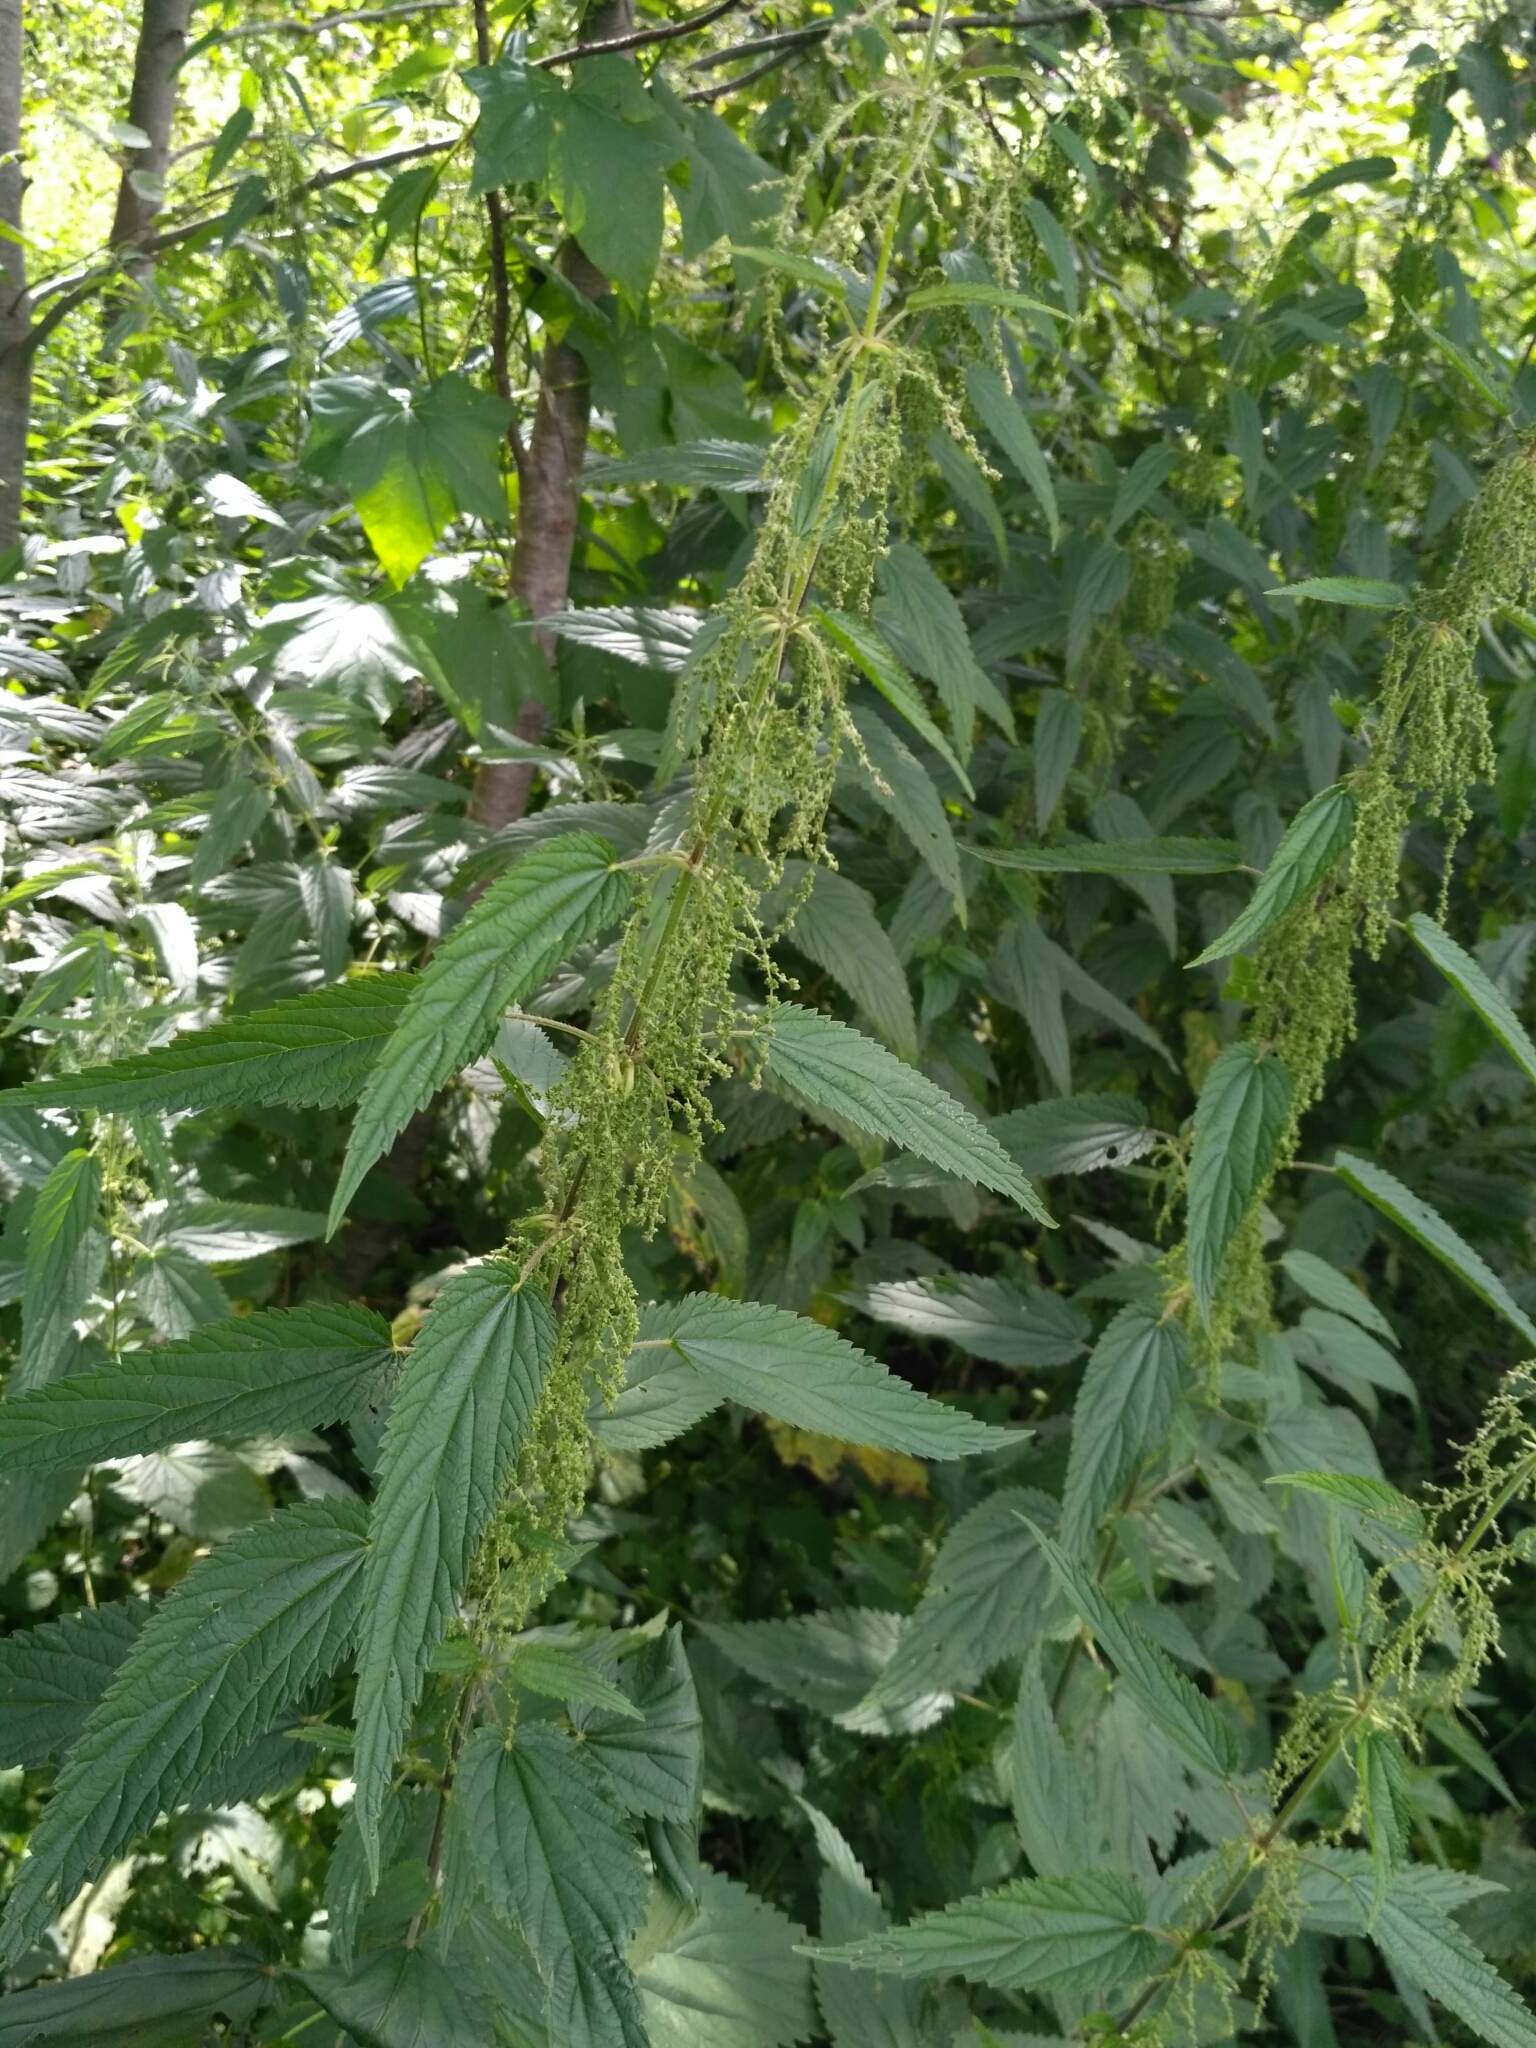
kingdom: Plantae
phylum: Tracheophyta
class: Magnoliopsida
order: Rosales
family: Urticaceae
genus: Urtica
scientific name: Urtica dioica
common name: Common nettle
